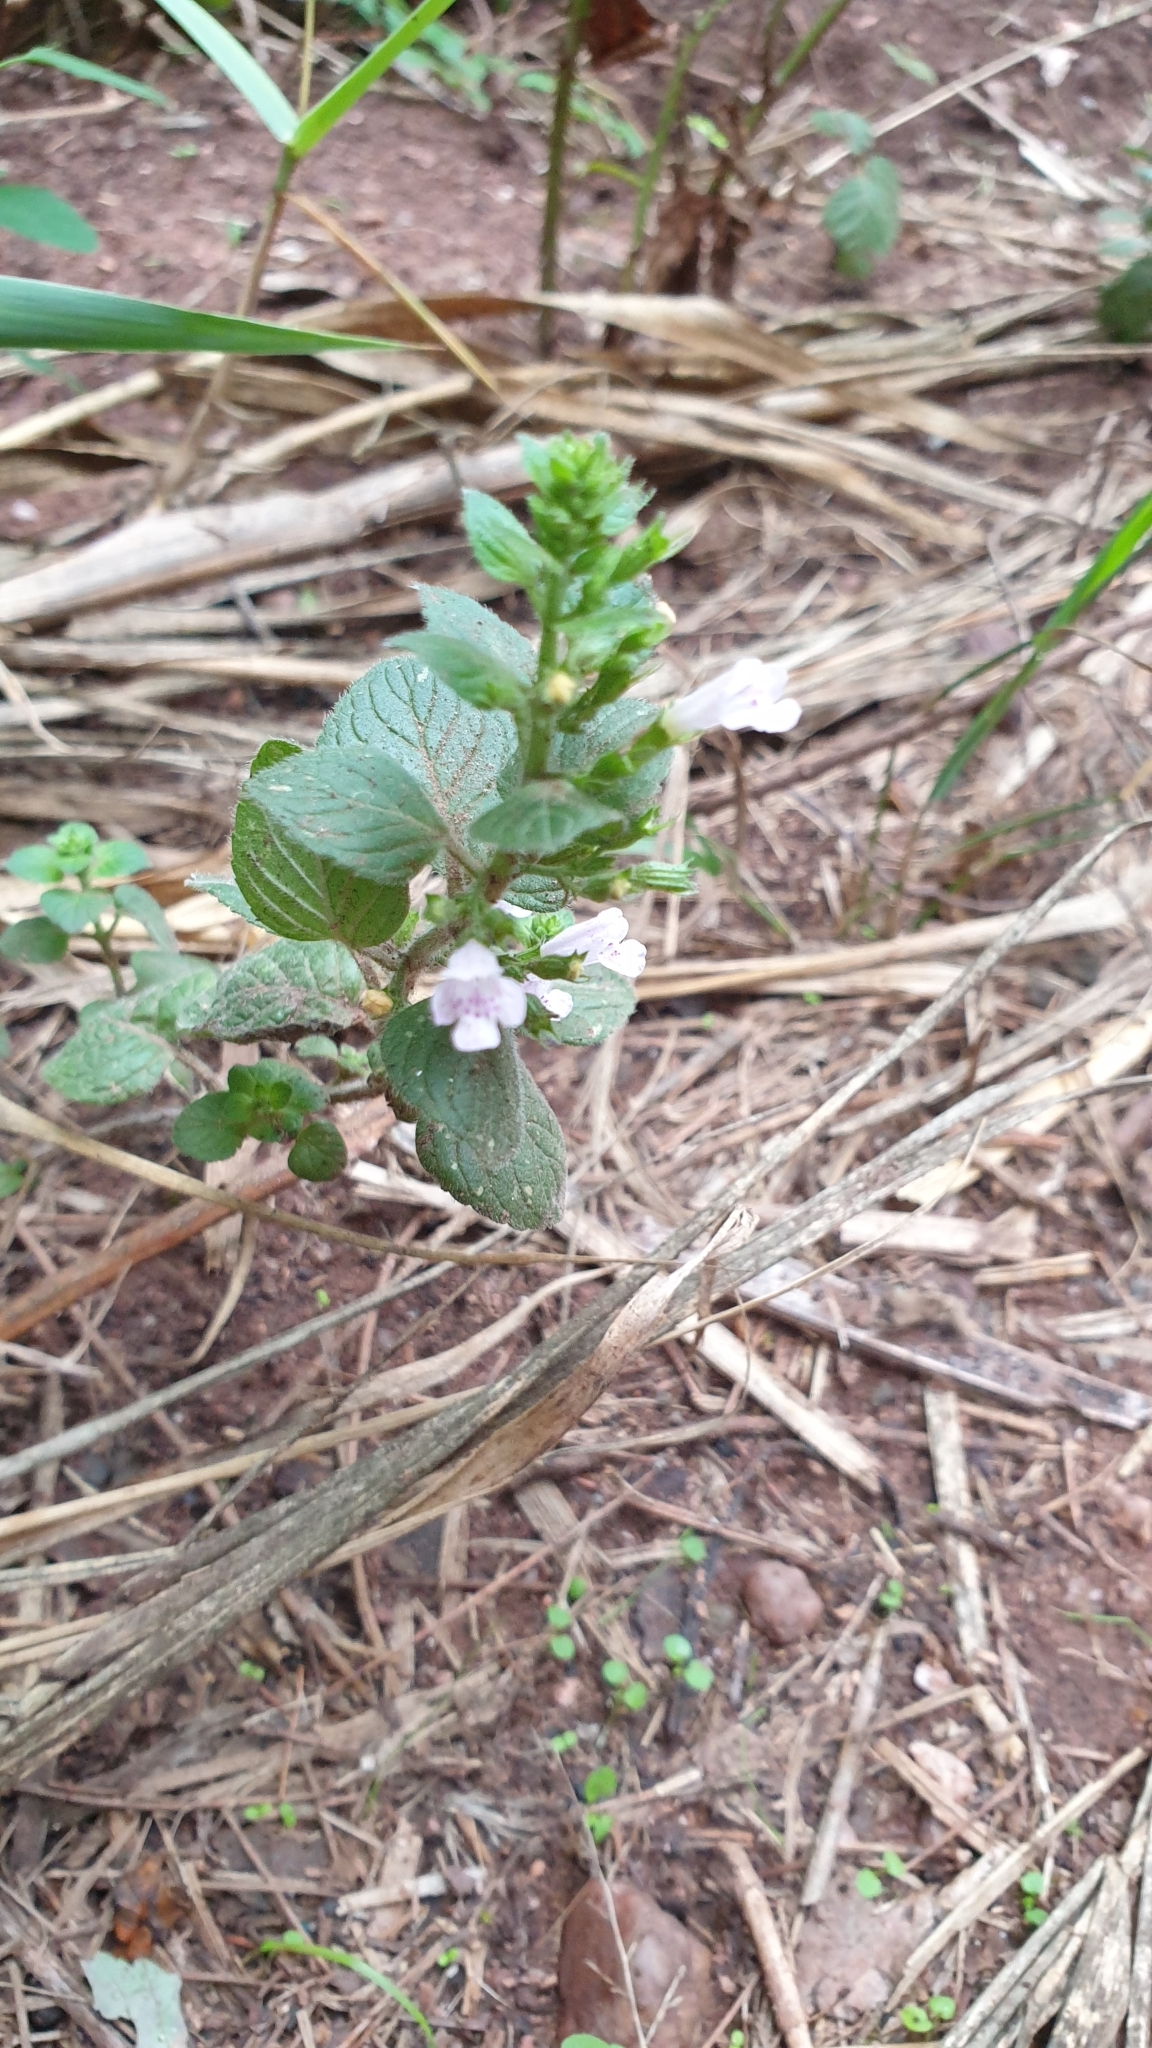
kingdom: Plantae
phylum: Tracheophyta
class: Magnoliopsida
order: Lamiales
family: Lamiaceae
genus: Clinopodium
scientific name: Clinopodium nepeta
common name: Lesser calamint
